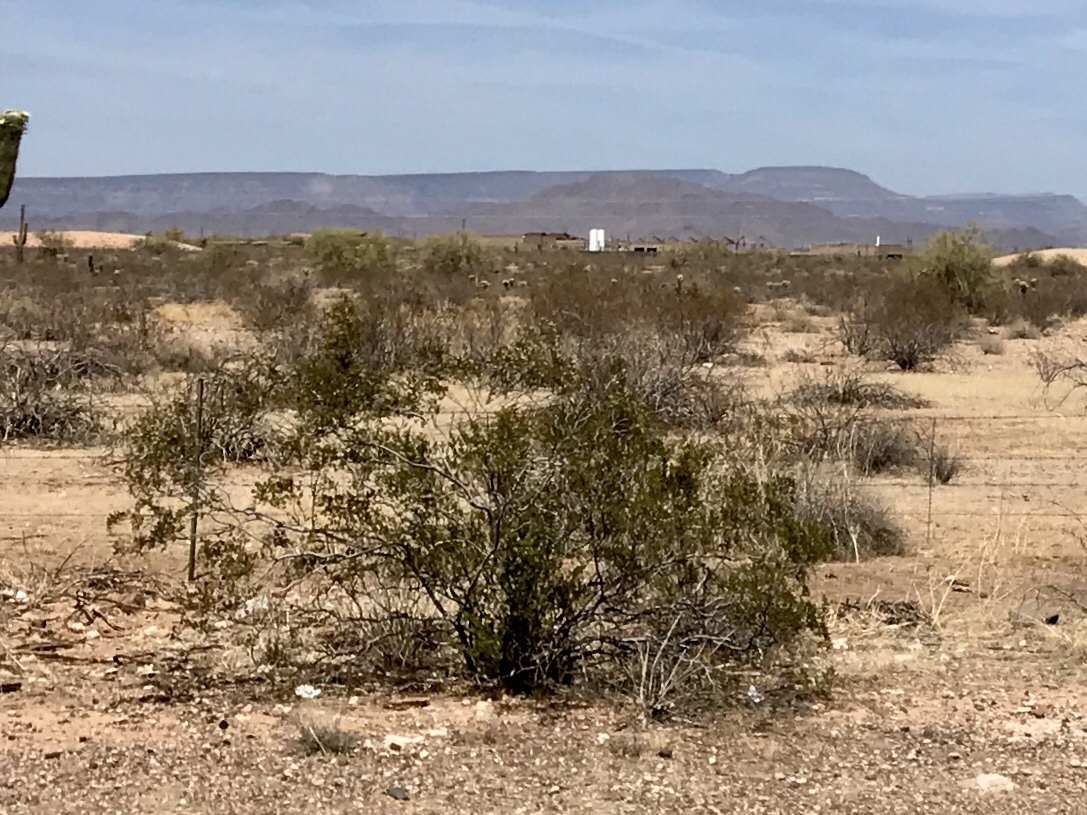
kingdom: Plantae
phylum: Tracheophyta
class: Magnoliopsida
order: Zygophyllales
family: Zygophyllaceae
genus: Larrea
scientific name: Larrea tridentata
